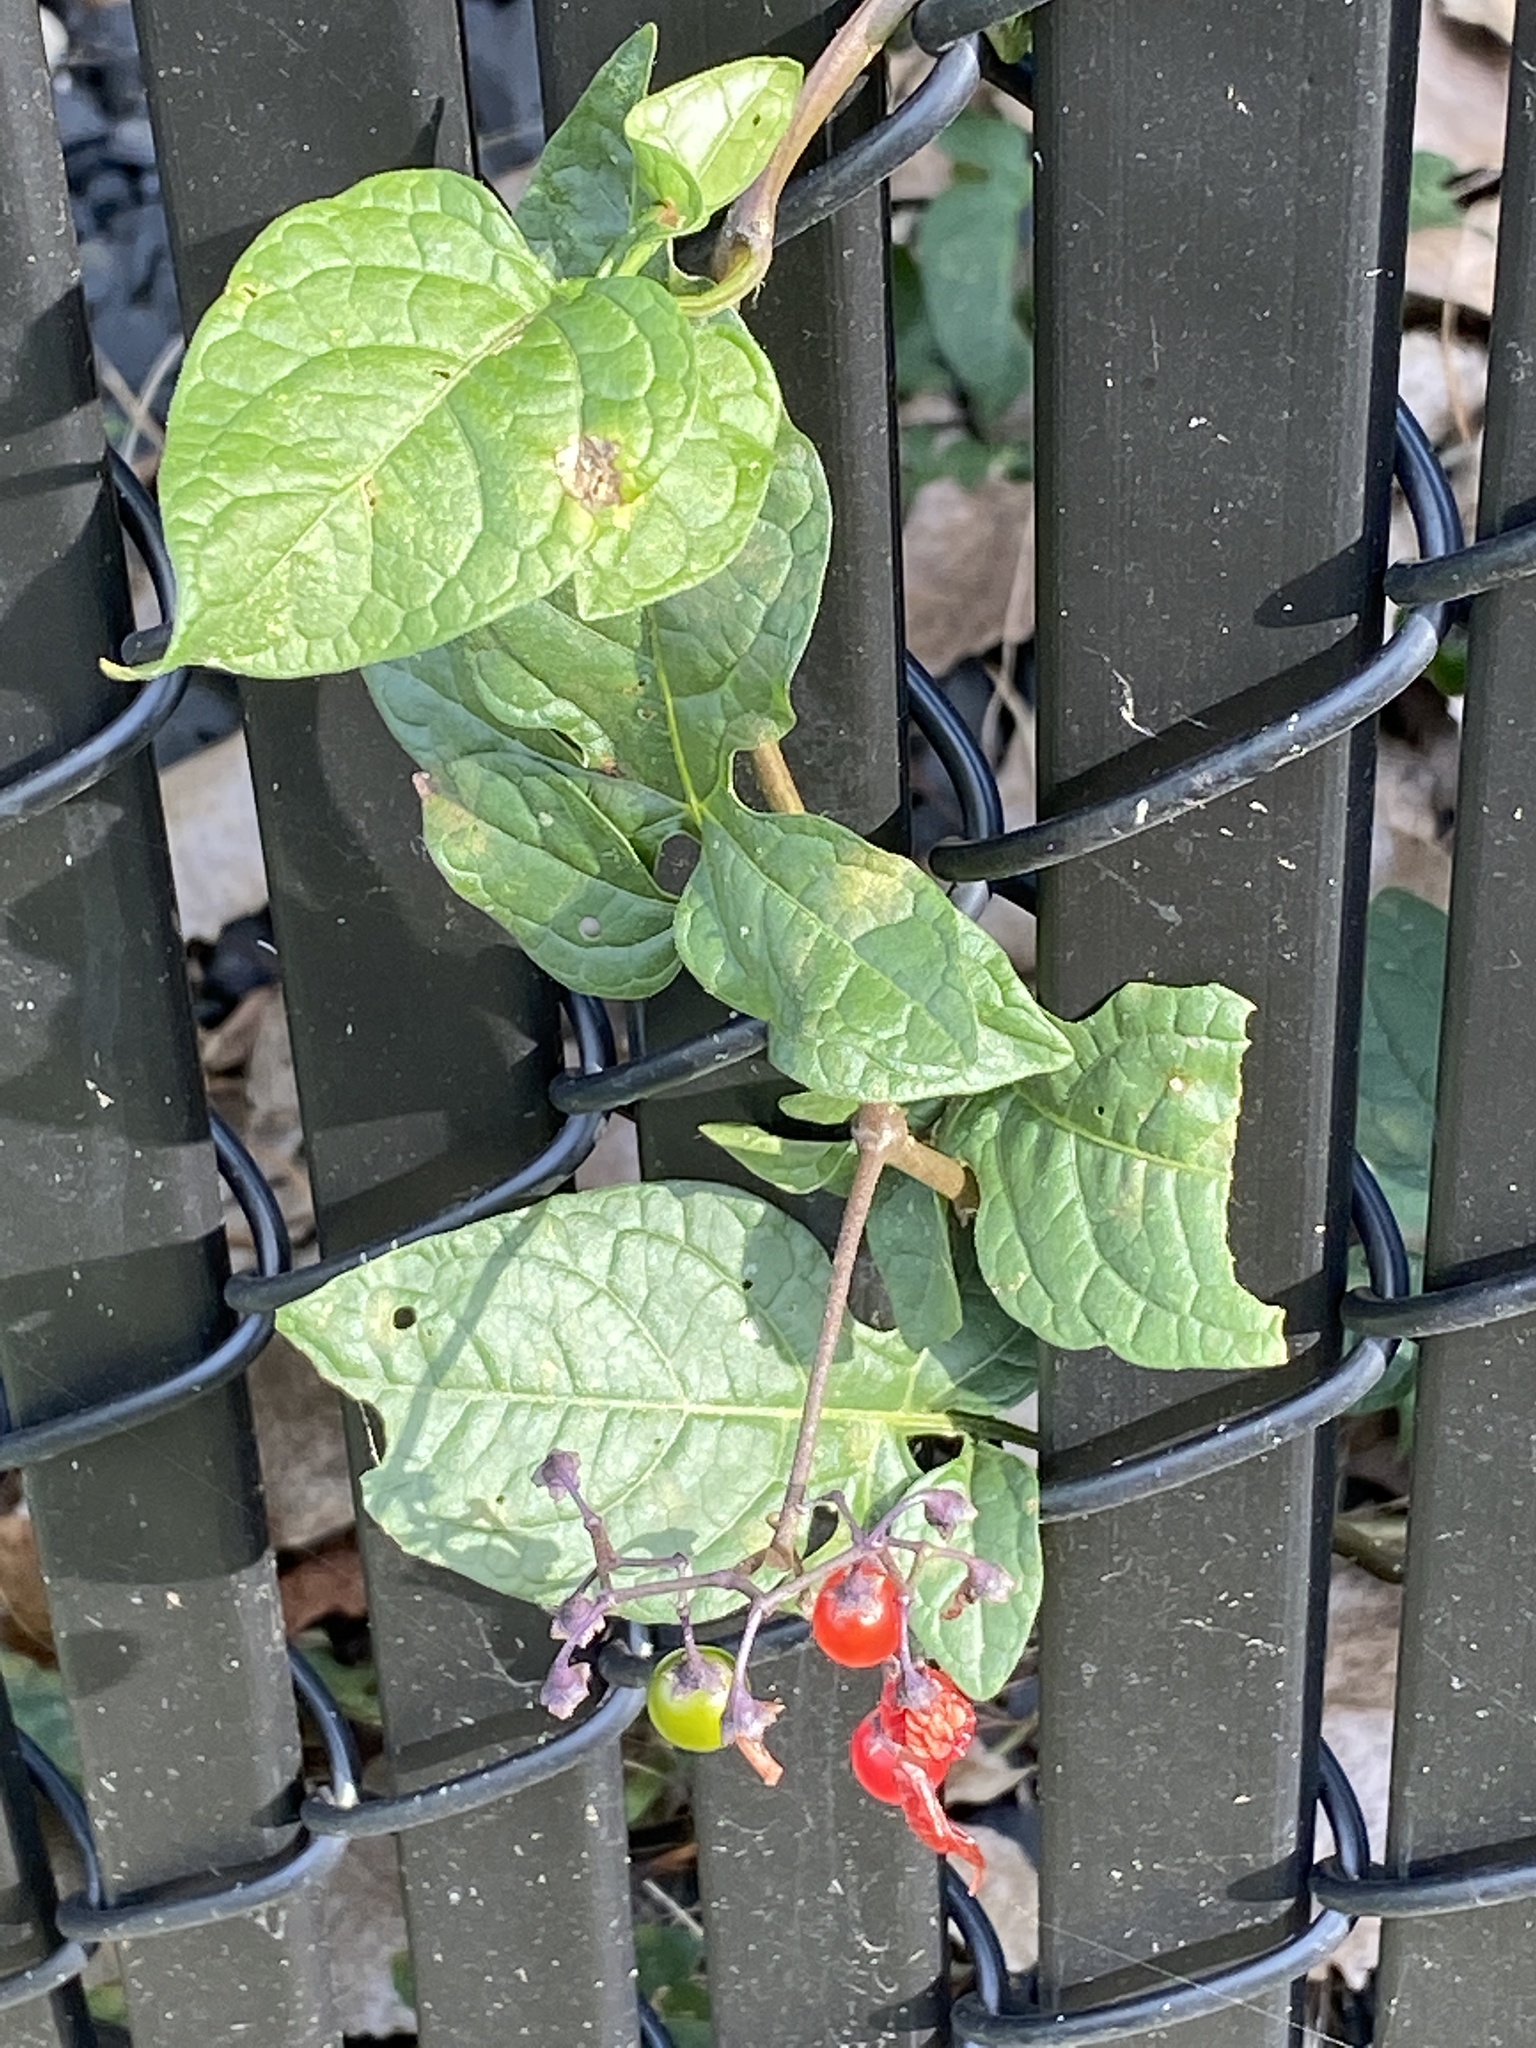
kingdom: Plantae
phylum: Tracheophyta
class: Magnoliopsida
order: Solanales
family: Solanaceae
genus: Solanum
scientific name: Solanum dulcamara
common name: Climbing nightshade
